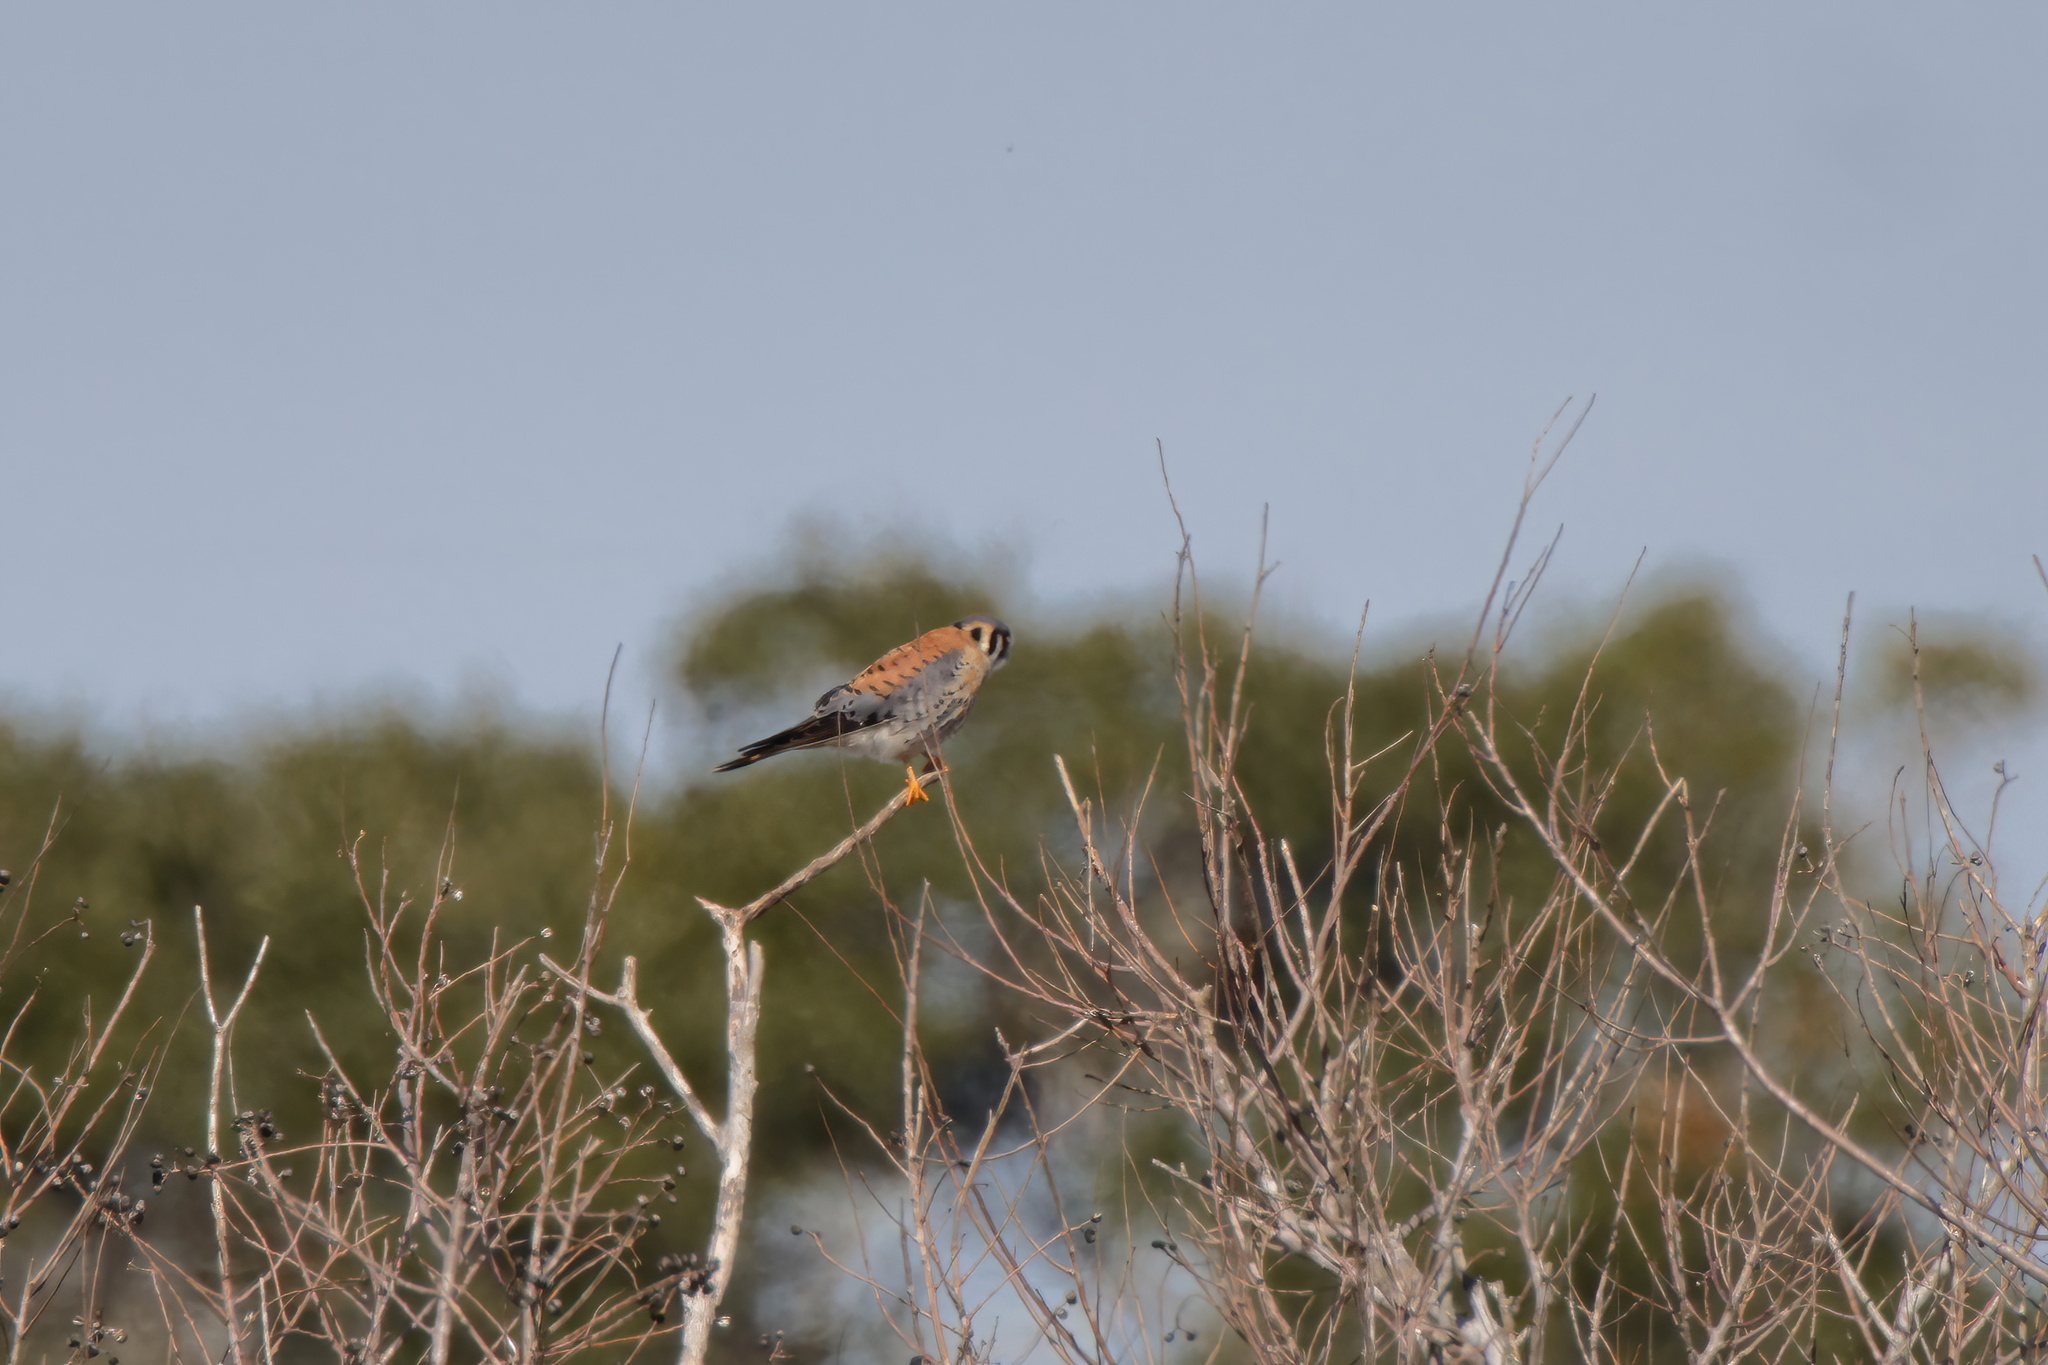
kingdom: Animalia
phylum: Chordata
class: Aves
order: Falconiformes
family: Falconidae
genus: Falco
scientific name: Falco sparverius
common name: American kestrel
